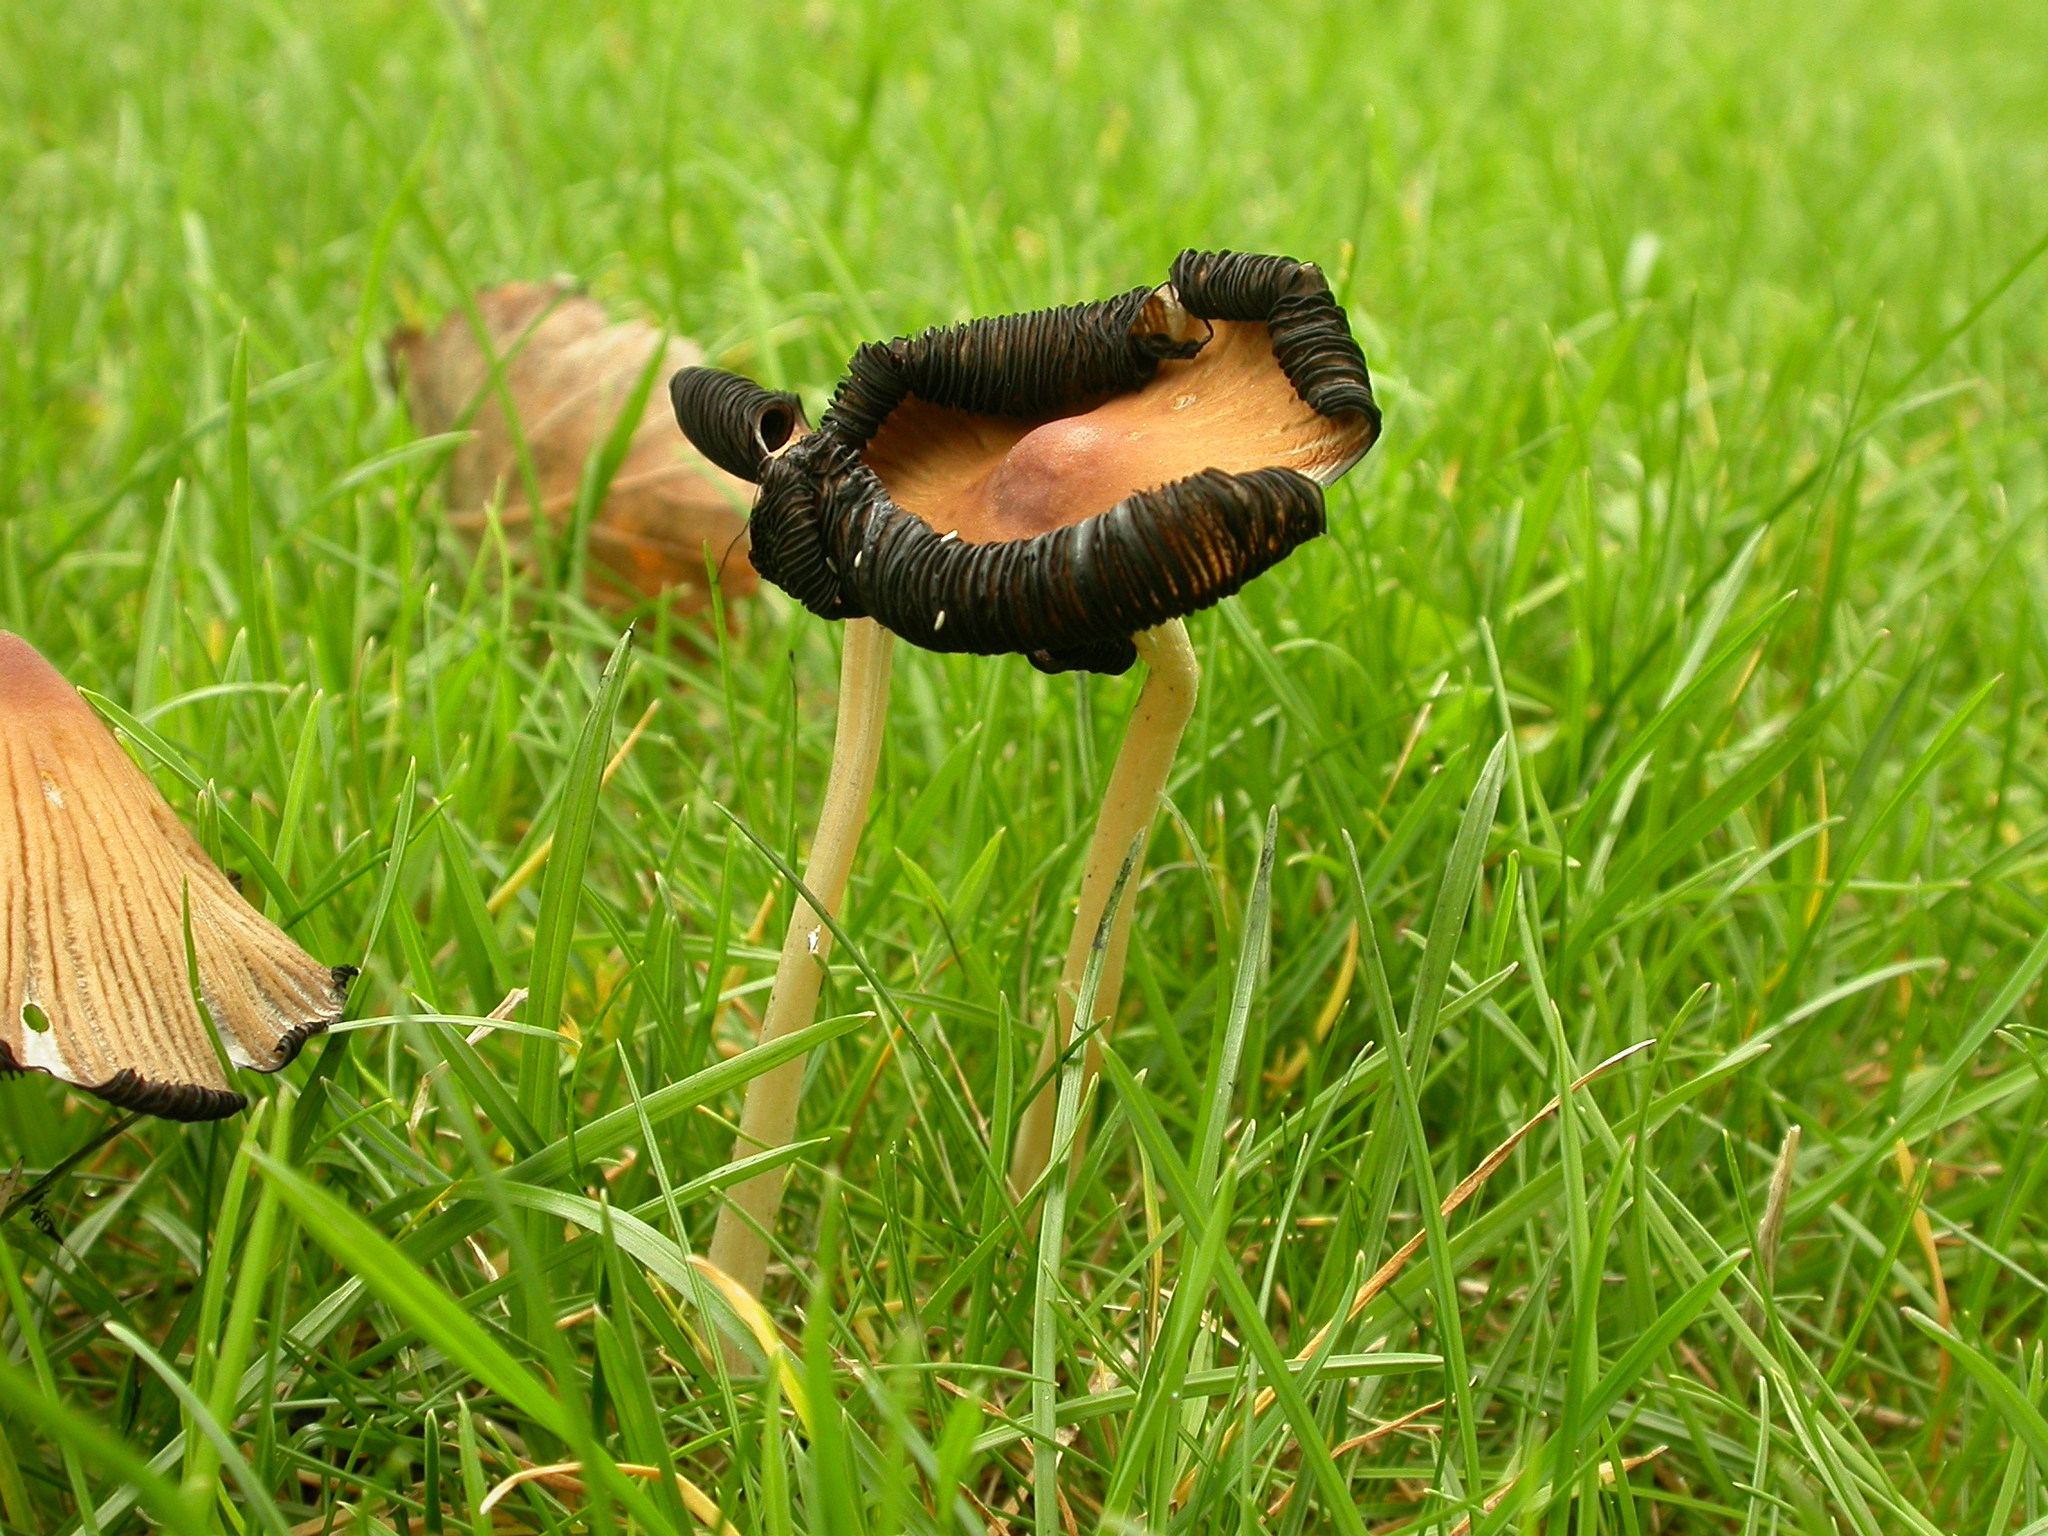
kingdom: Fungi
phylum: Basidiomycota
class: Agaricomycetes
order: Agaricales
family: Psathyrellaceae
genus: Coprinellus
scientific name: Coprinellus micaceus
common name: Glistening ink-cap
